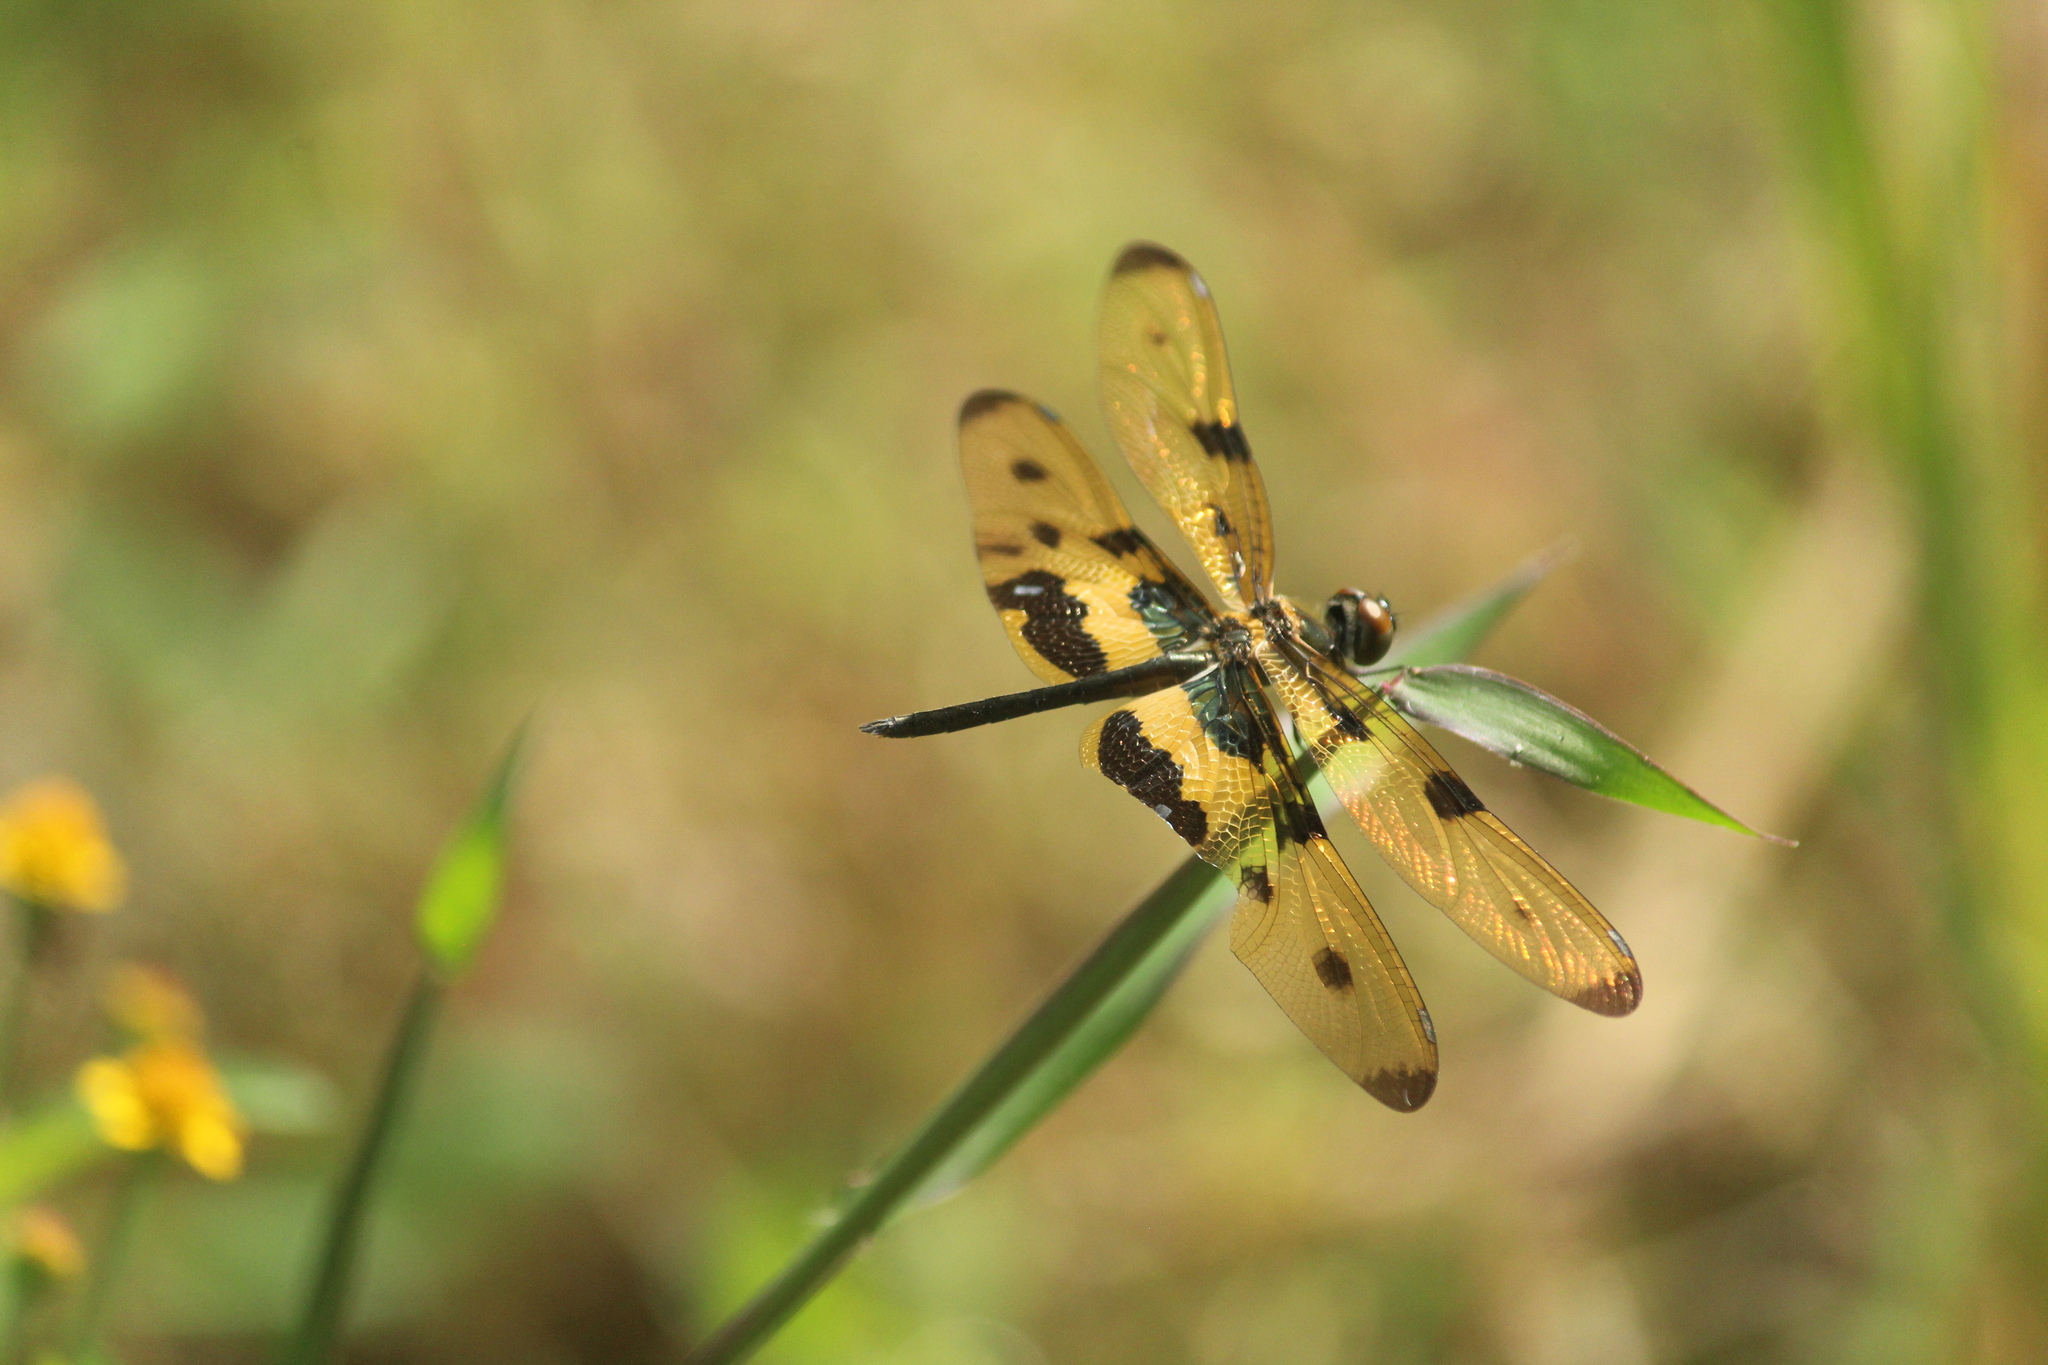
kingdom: Animalia
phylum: Arthropoda
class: Insecta
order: Odonata
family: Libellulidae
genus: Rhyothemis
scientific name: Rhyothemis variegata
